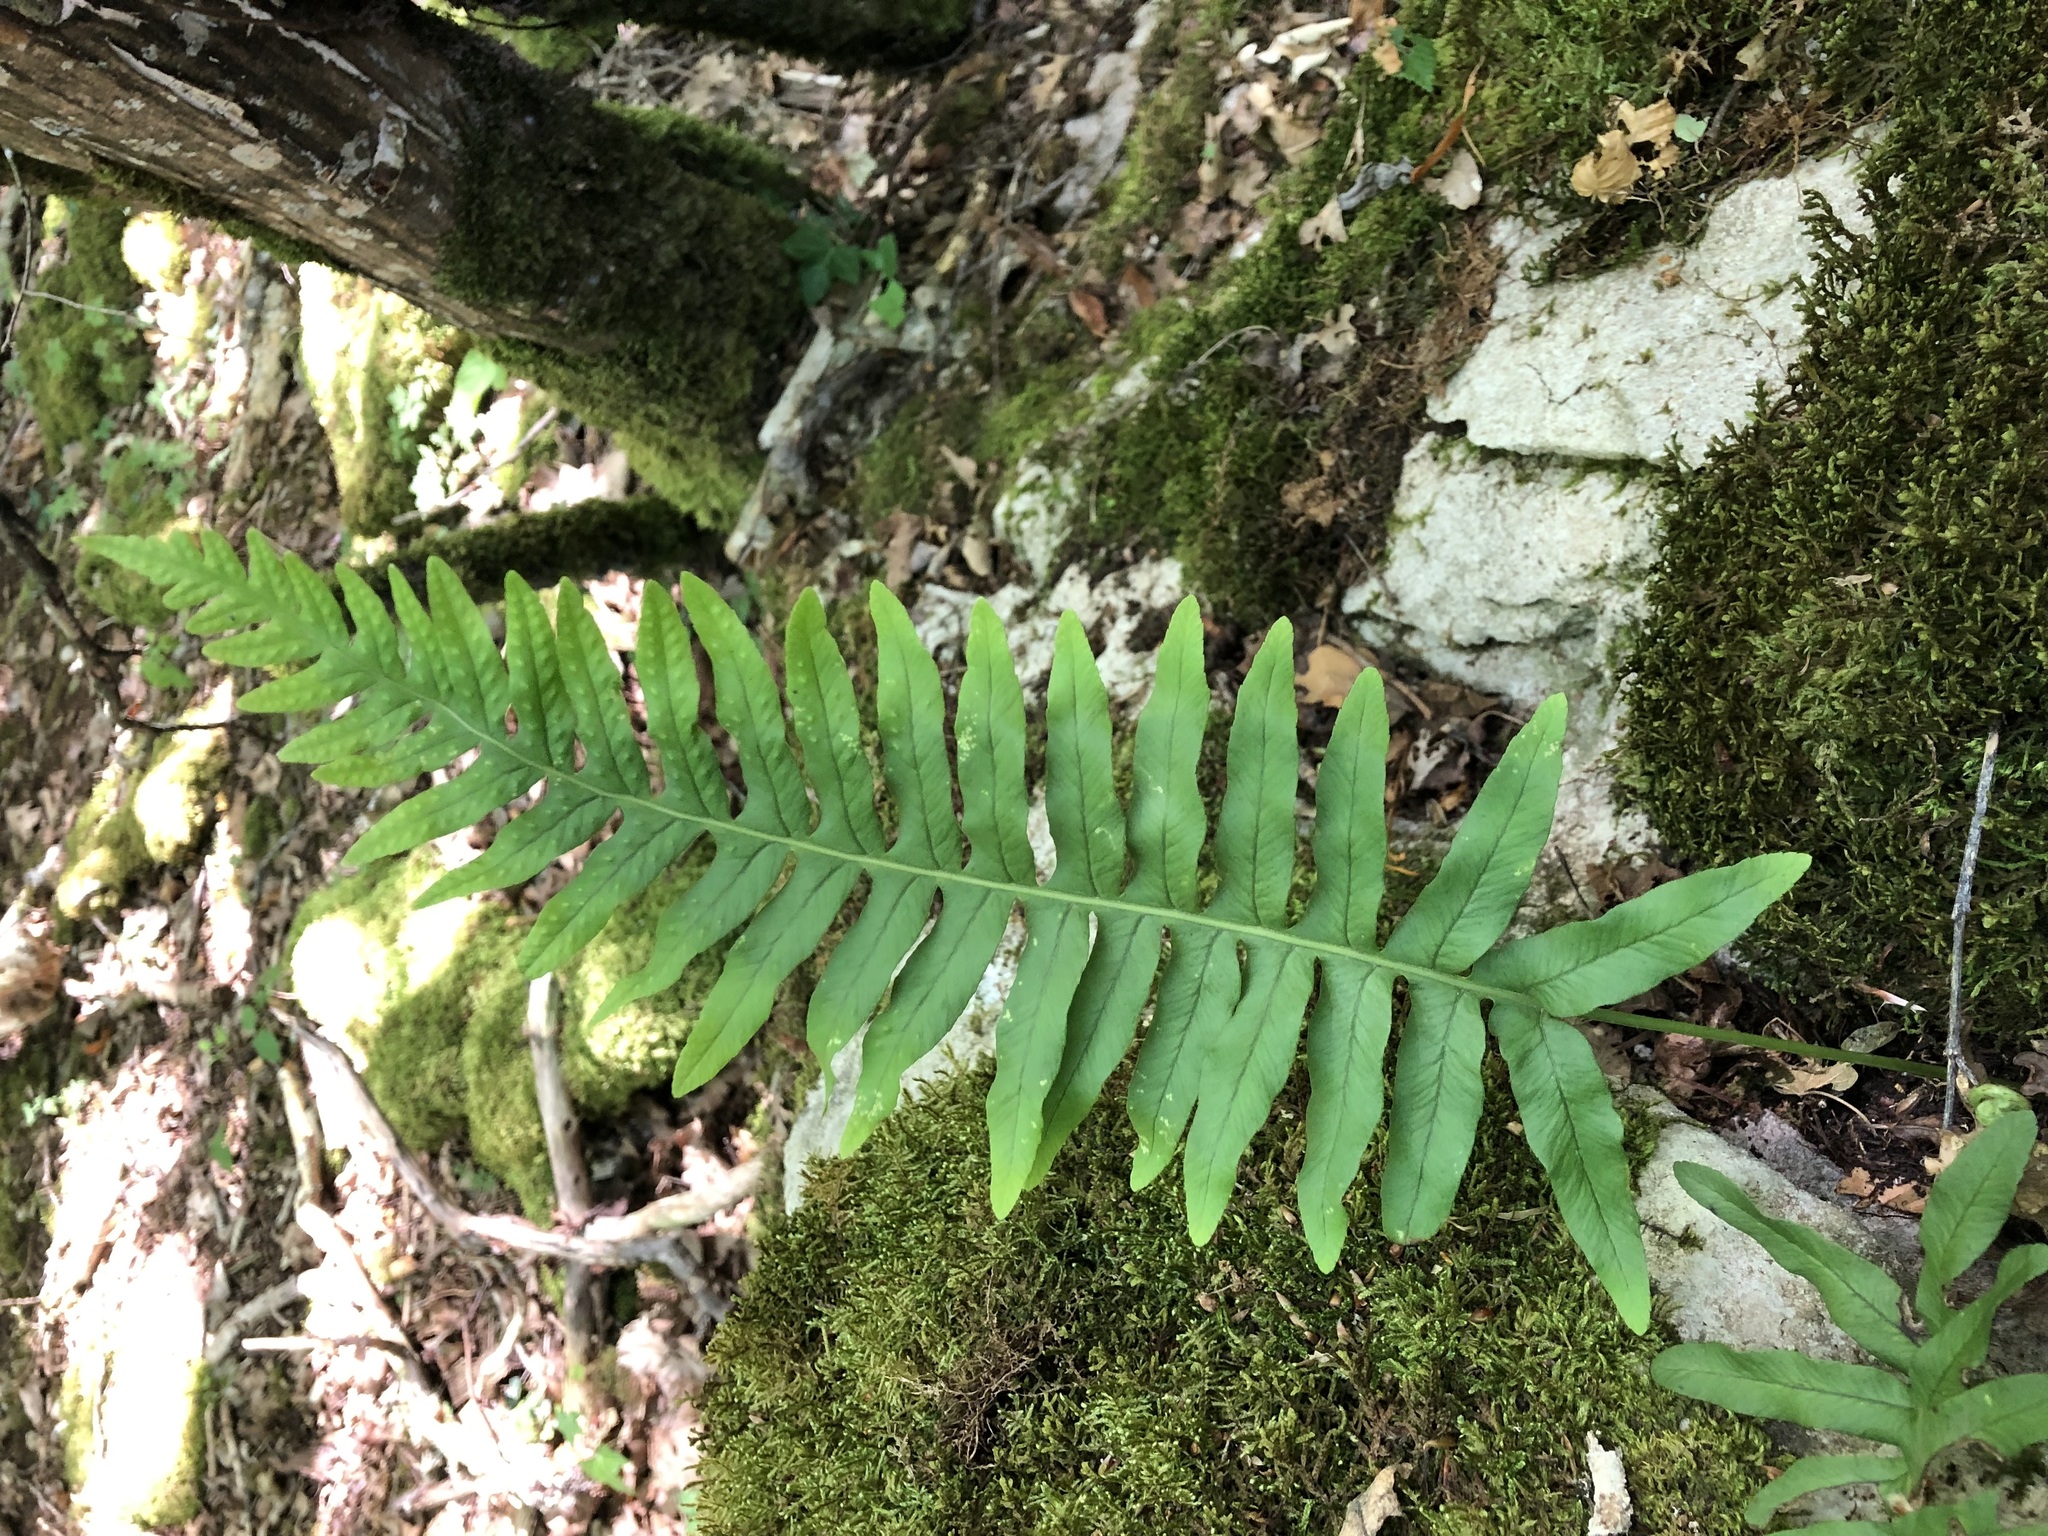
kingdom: Plantae
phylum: Tracheophyta
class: Polypodiopsida
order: Polypodiales
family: Polypodiaceae
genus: Polypodium
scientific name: Polypodium vulgare
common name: Common polypody
